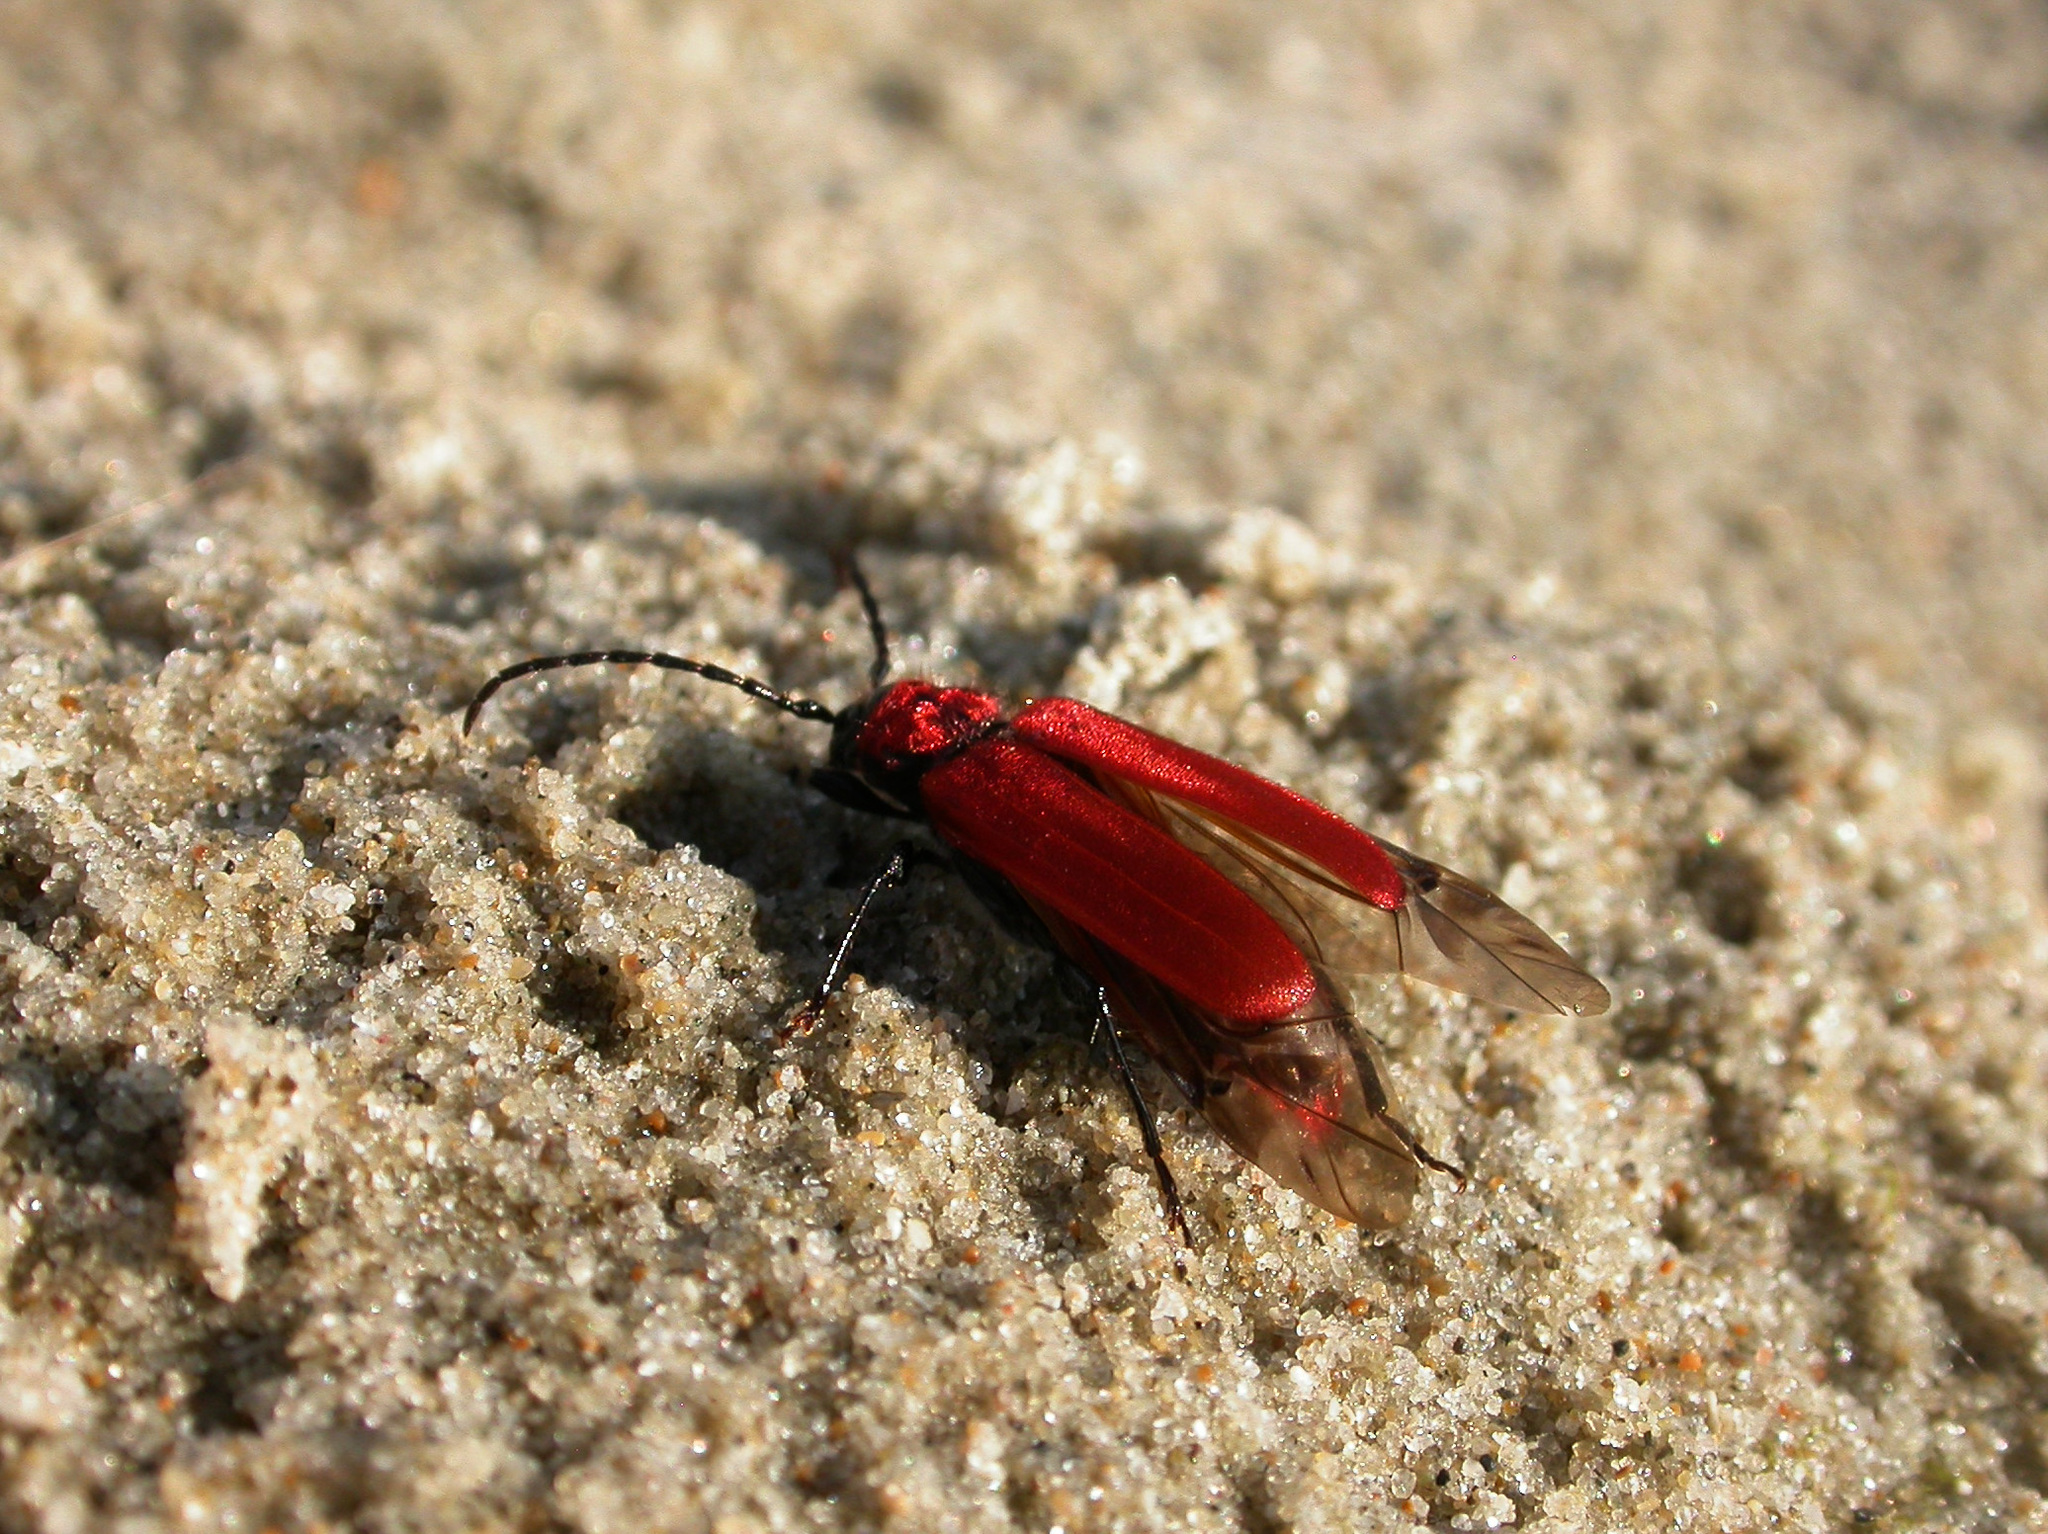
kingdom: Animalia
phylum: Arthropoda
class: Insecta
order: Coleoptera
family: Cerambycidae
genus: Pyrrhidium
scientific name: Pyrrhidium sanguineum
